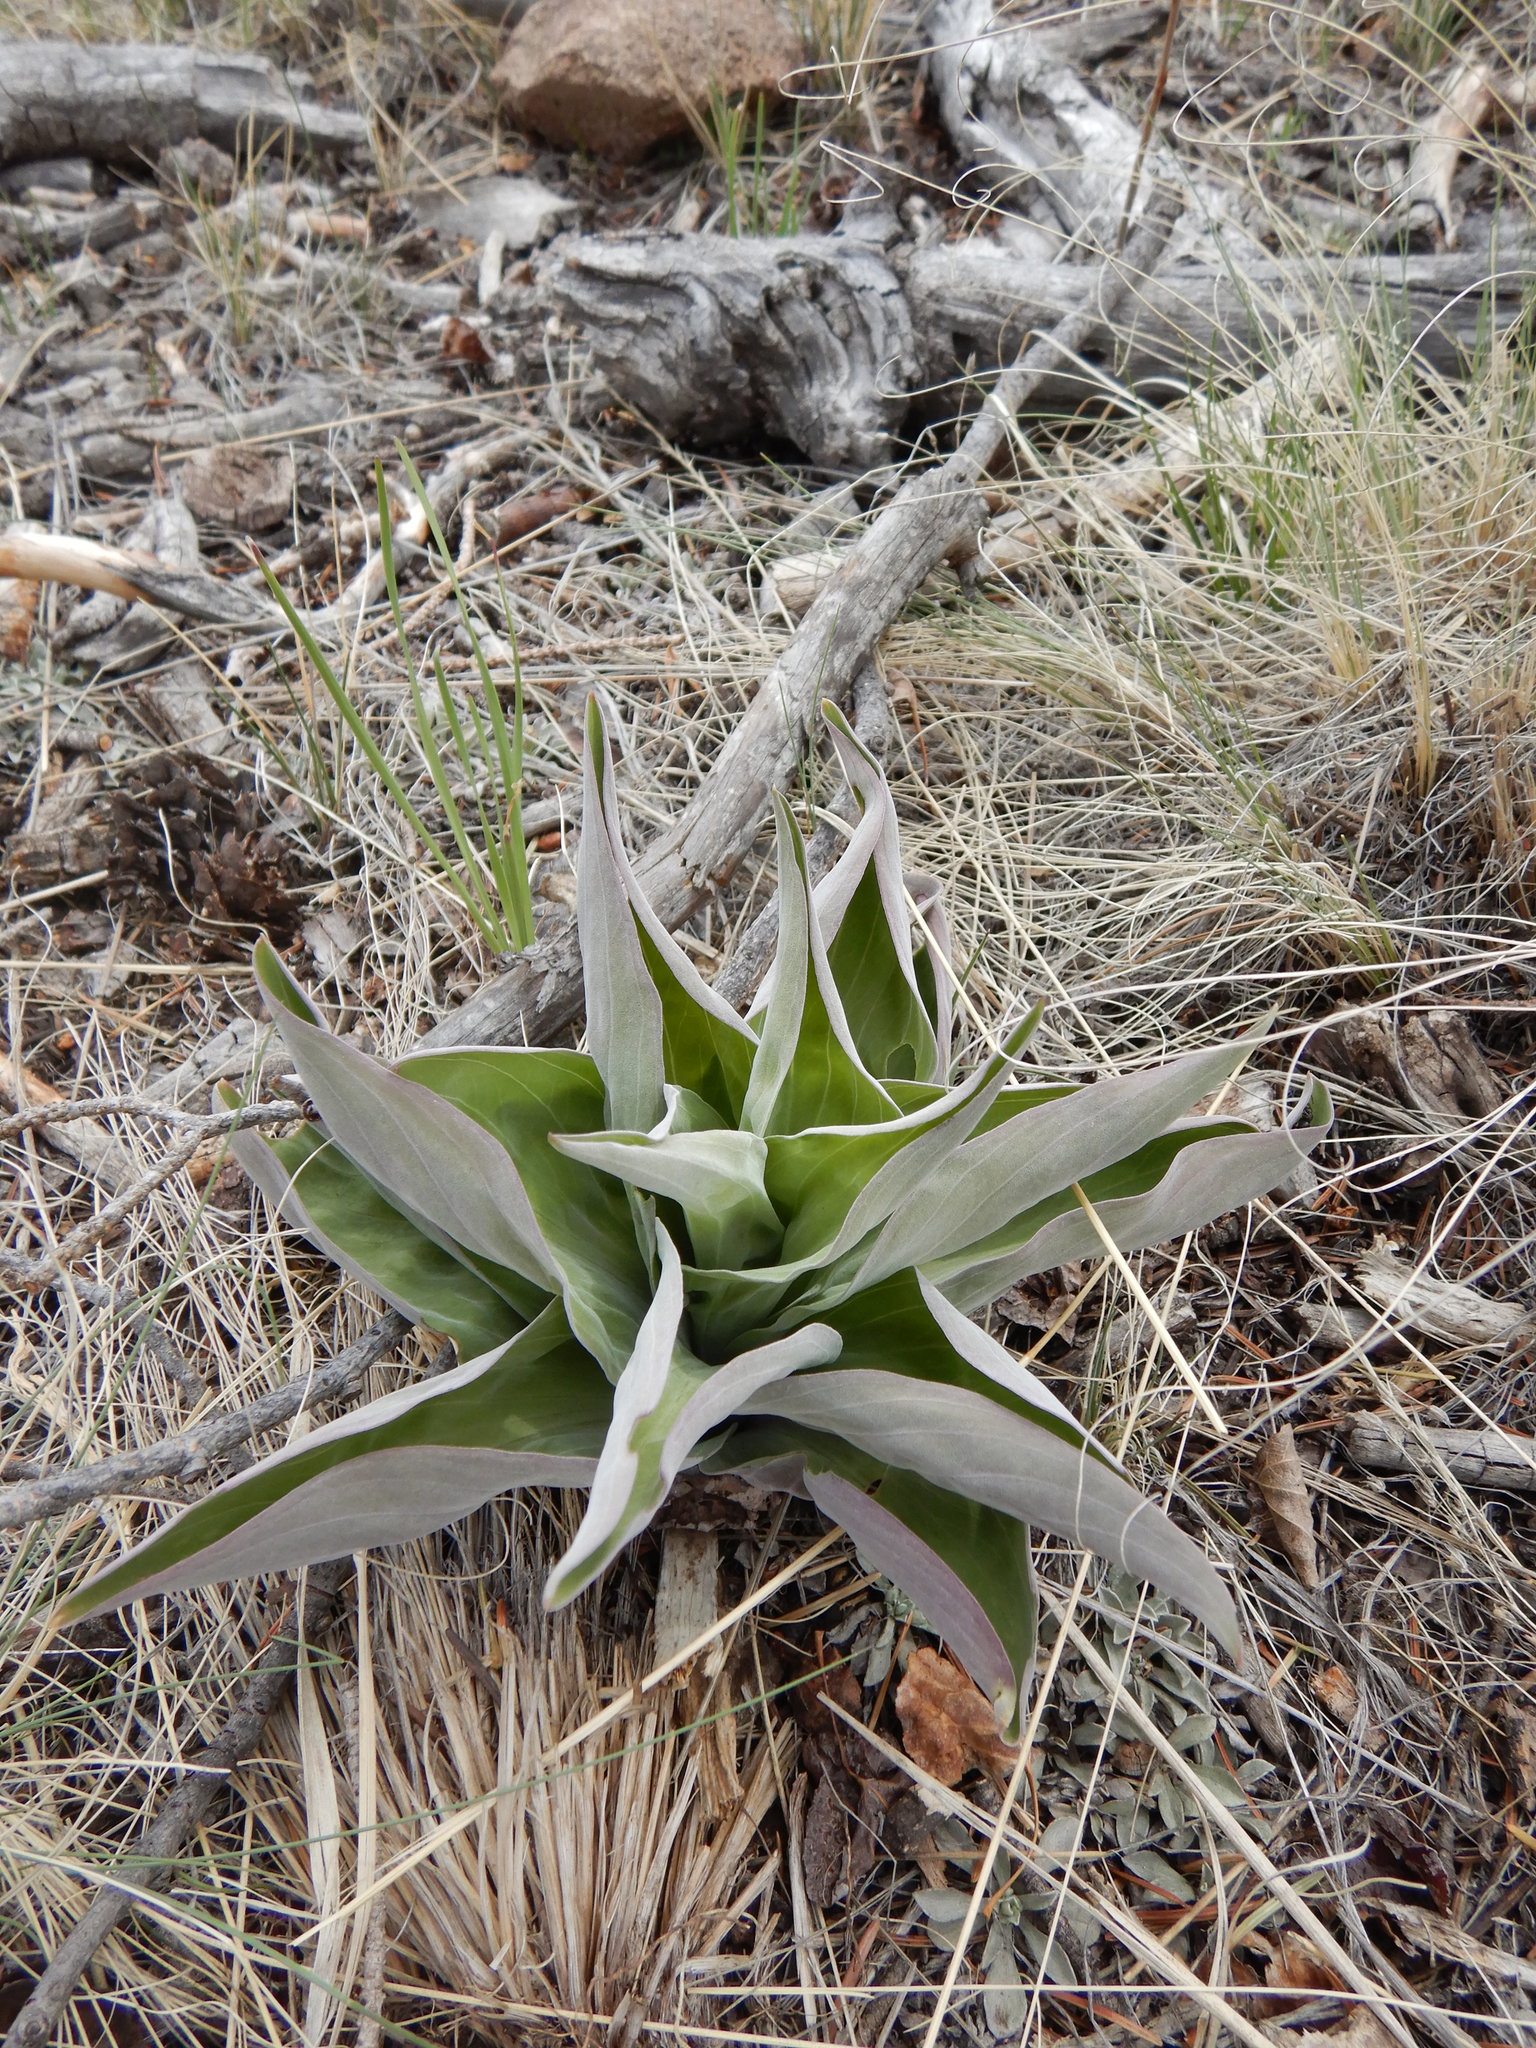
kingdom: Plantae
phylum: Tracheophyta
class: Liliopsida
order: Liliales
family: Melanthiaceae
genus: Veratrum
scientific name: Veratrum californicum
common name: California veratrum
